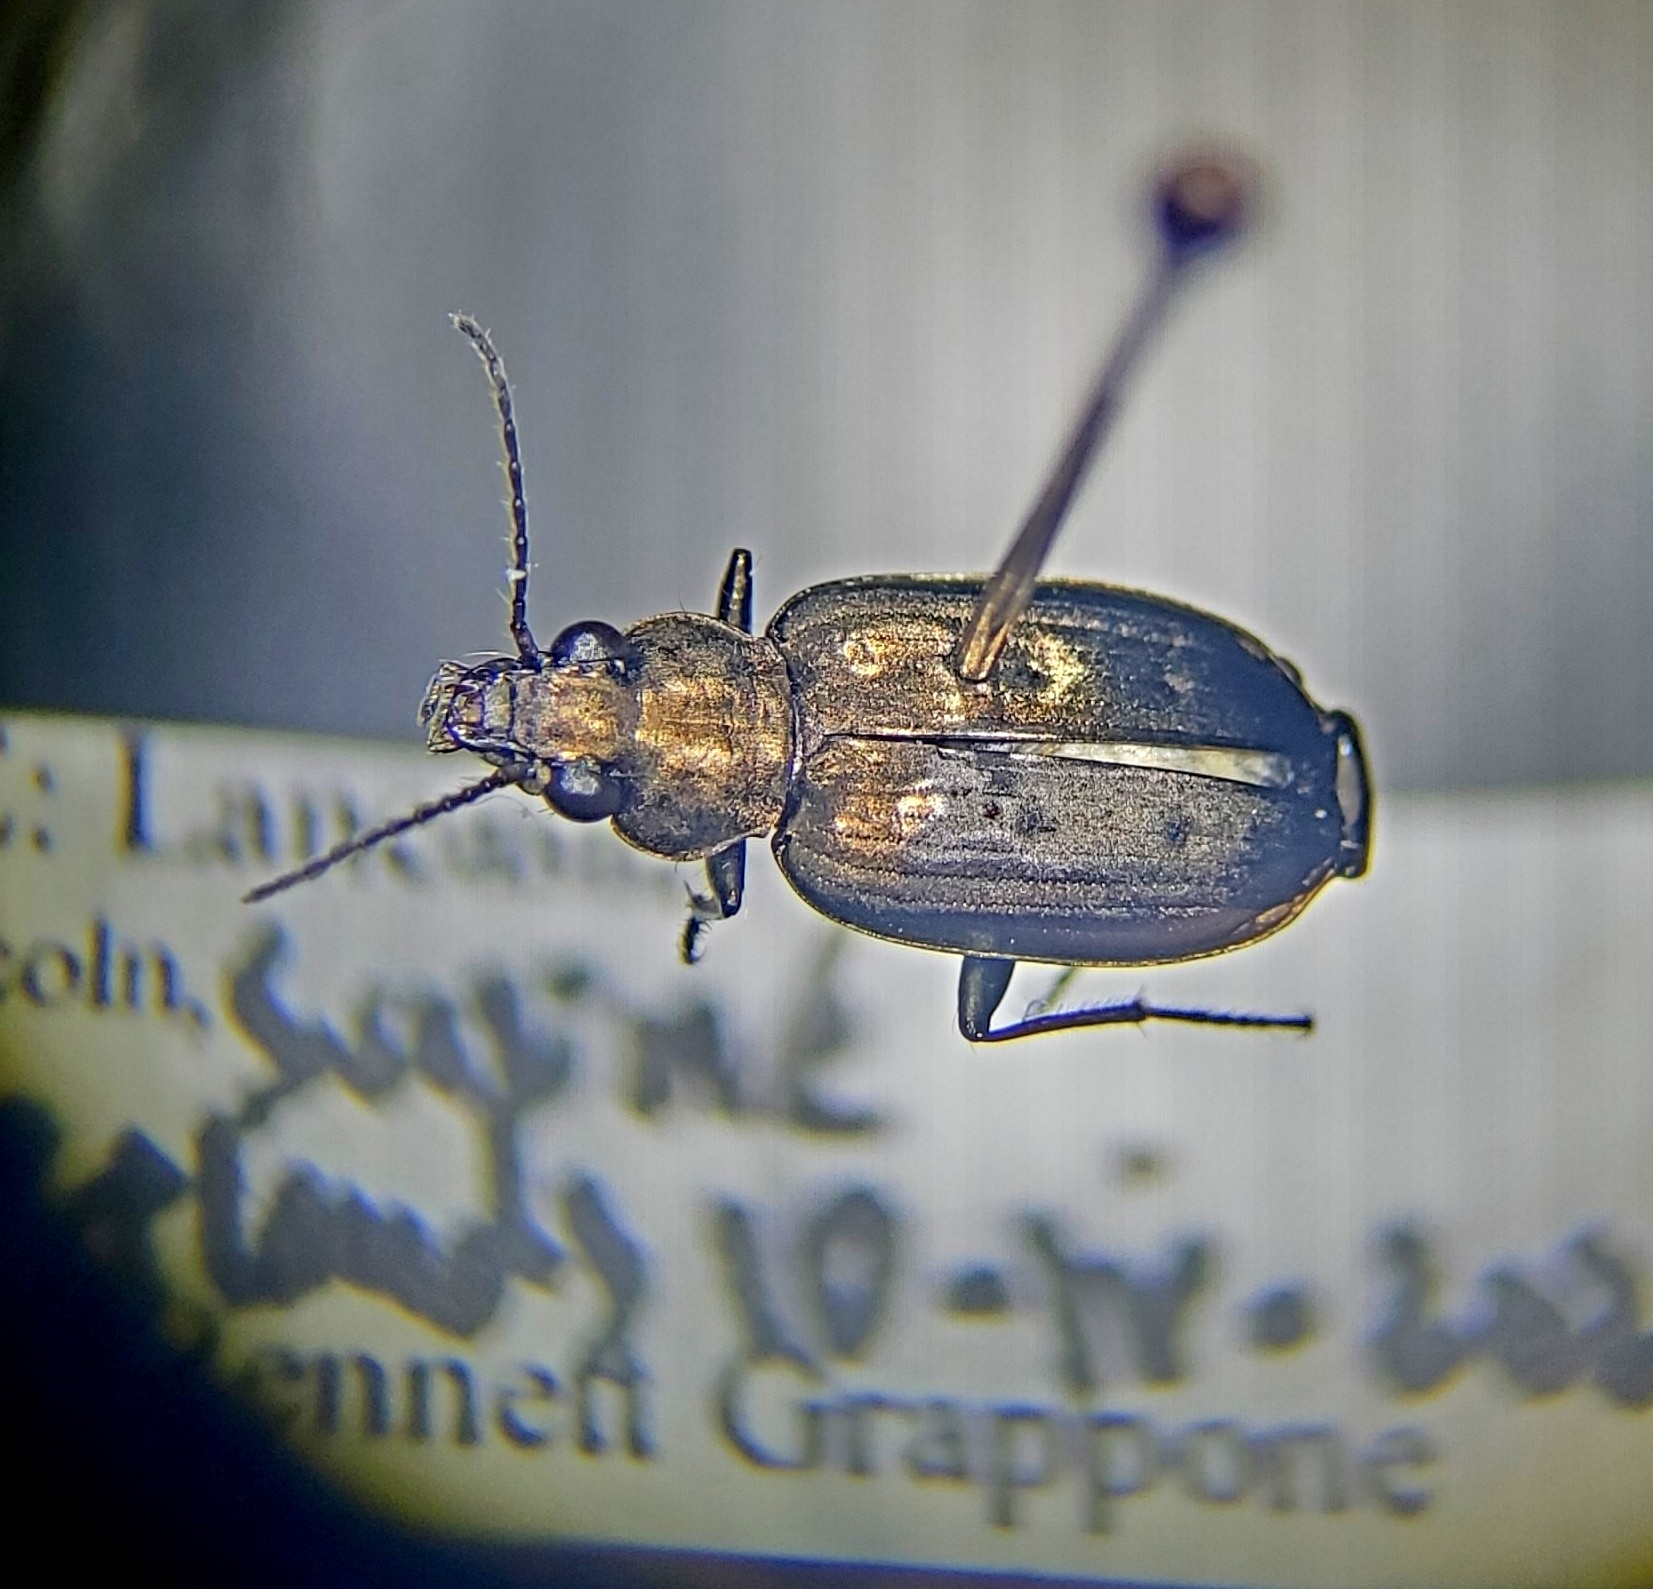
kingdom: Animalia
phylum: Arthropoda
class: Insecta
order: Coleoptera
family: Carabidae
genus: Bembidion
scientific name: Bembidion cheyennense
